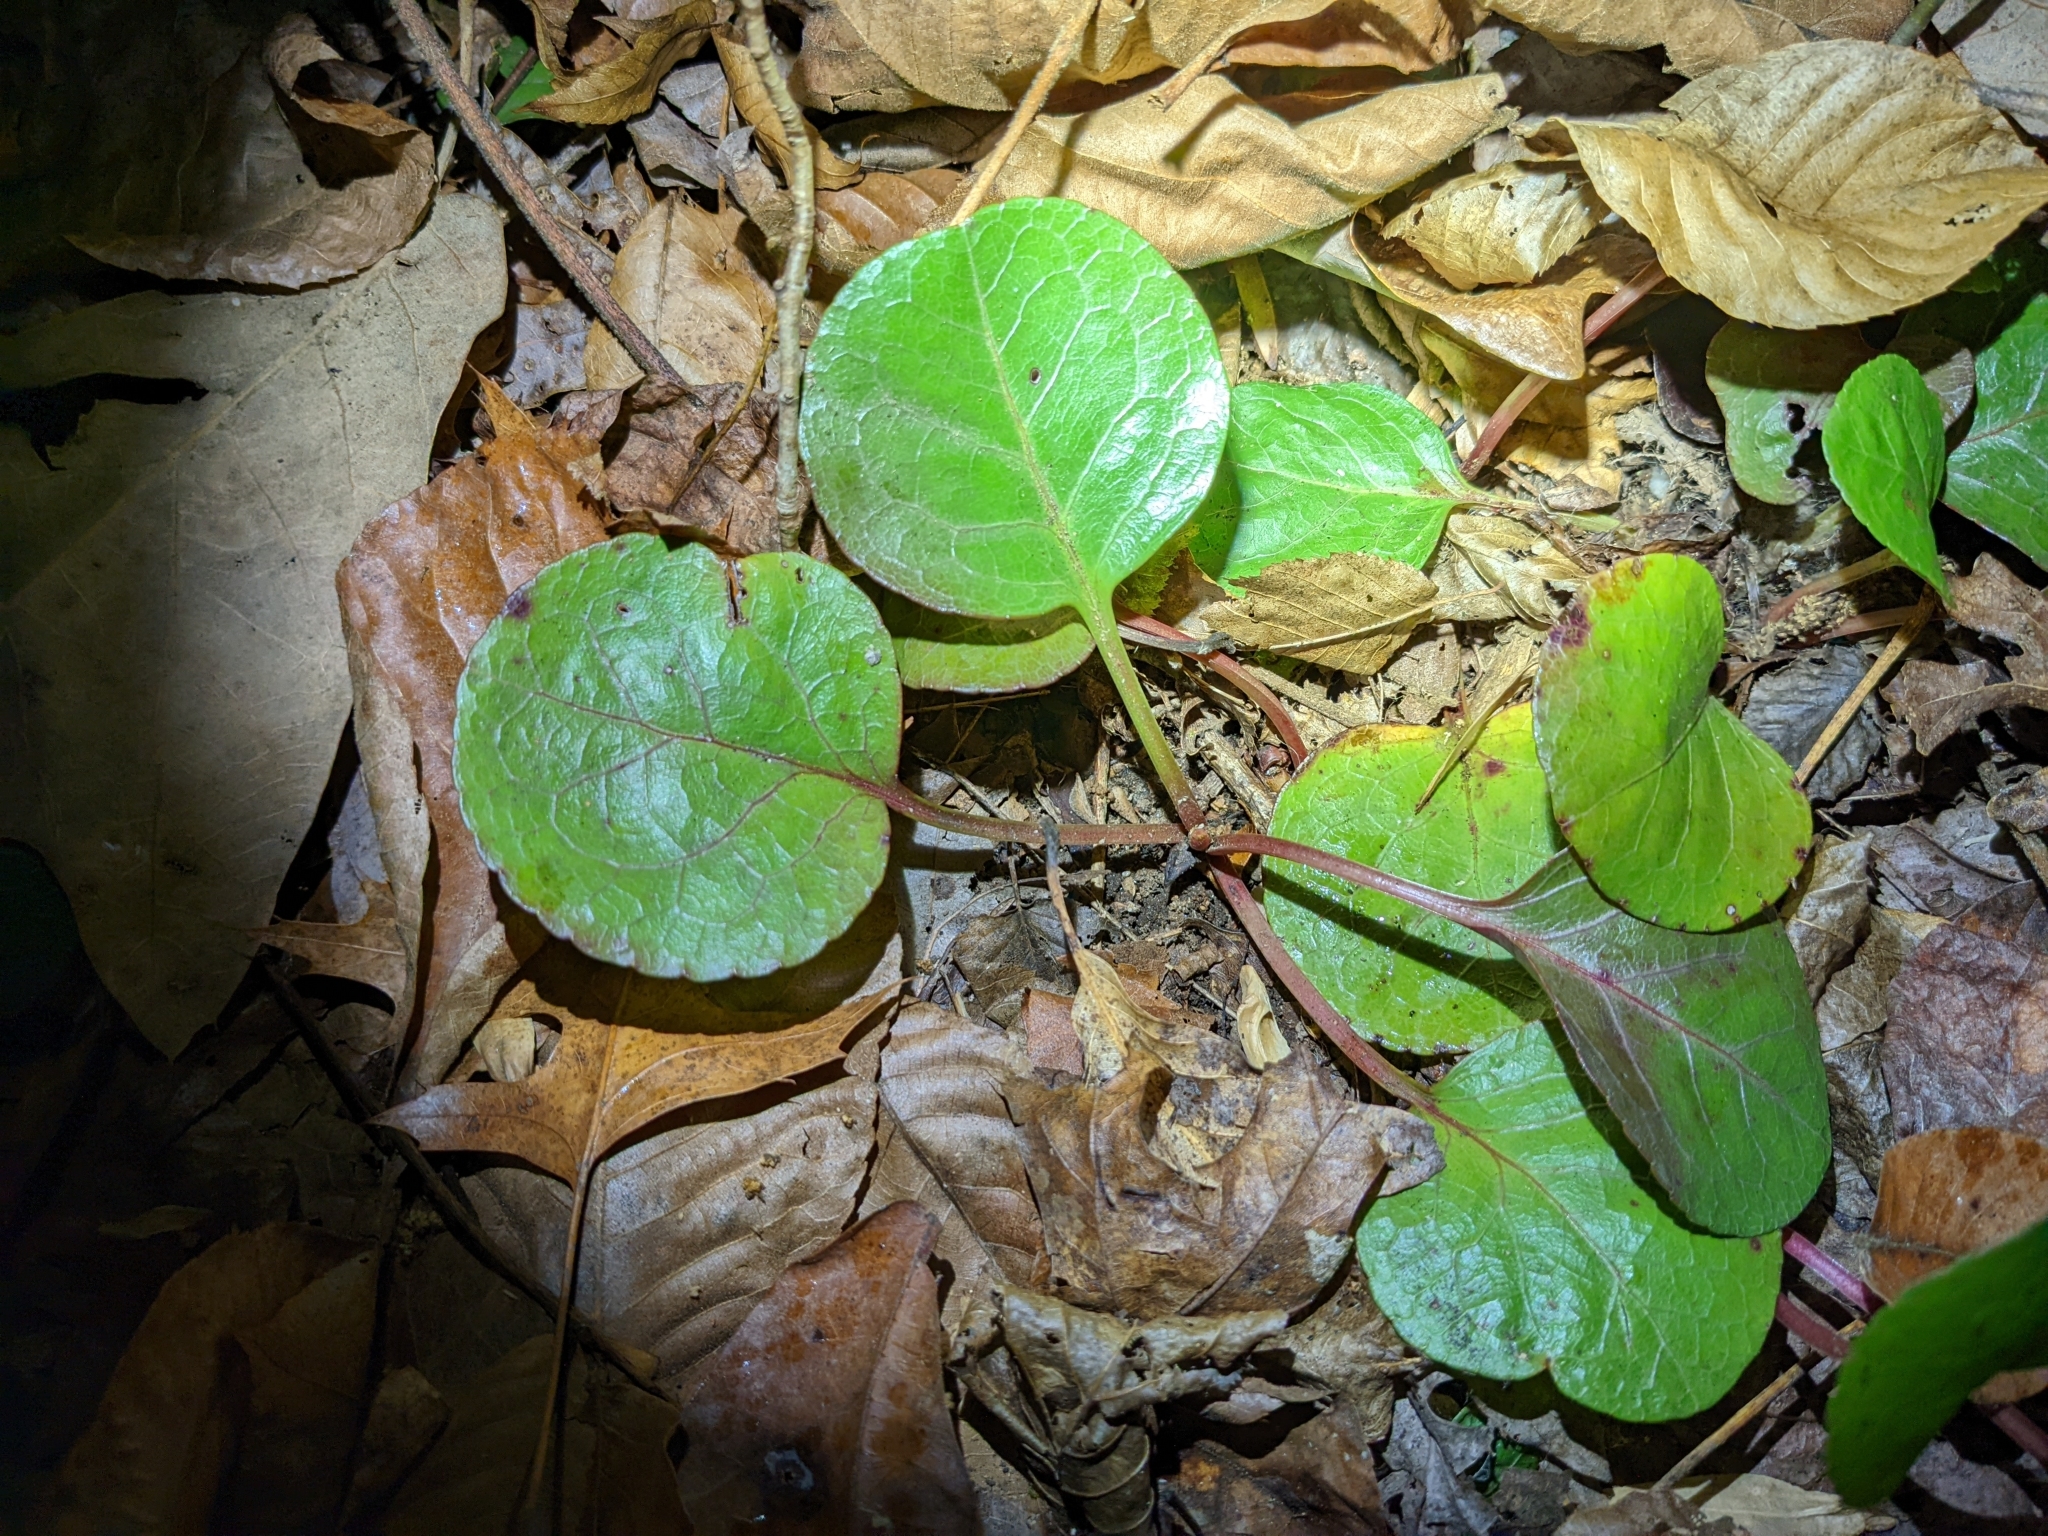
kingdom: Plantae
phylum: Tracheophyta
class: Magnoliopsida
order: Ericales
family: Ericaceae
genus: Pyrola
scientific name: Pyrola americana
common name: American wintergreen
